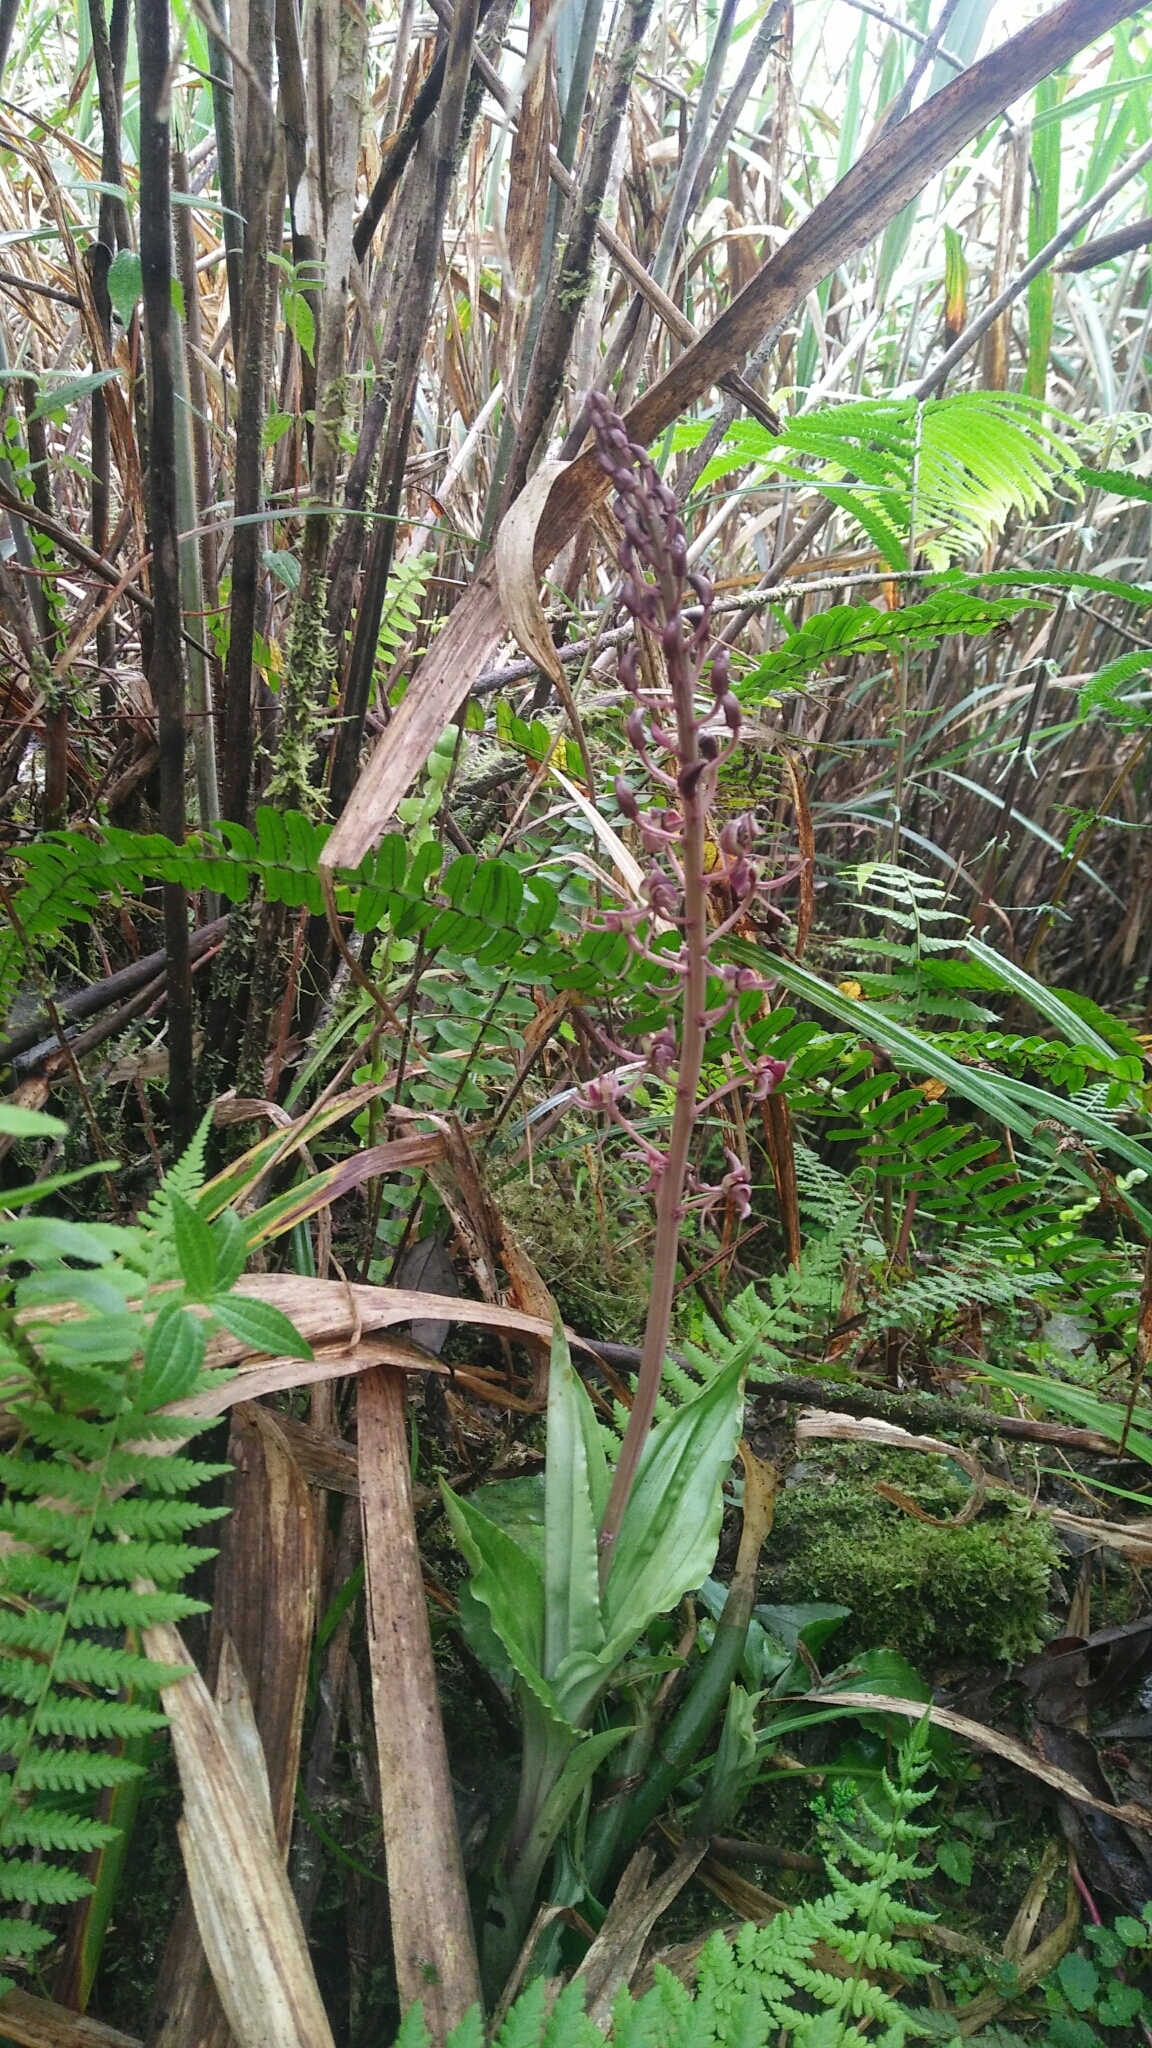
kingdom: Plantae
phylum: Tracheophyta
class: Liliopsida
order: Asparagales
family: Orchidaceae
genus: Liparis
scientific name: Liparis formosana
